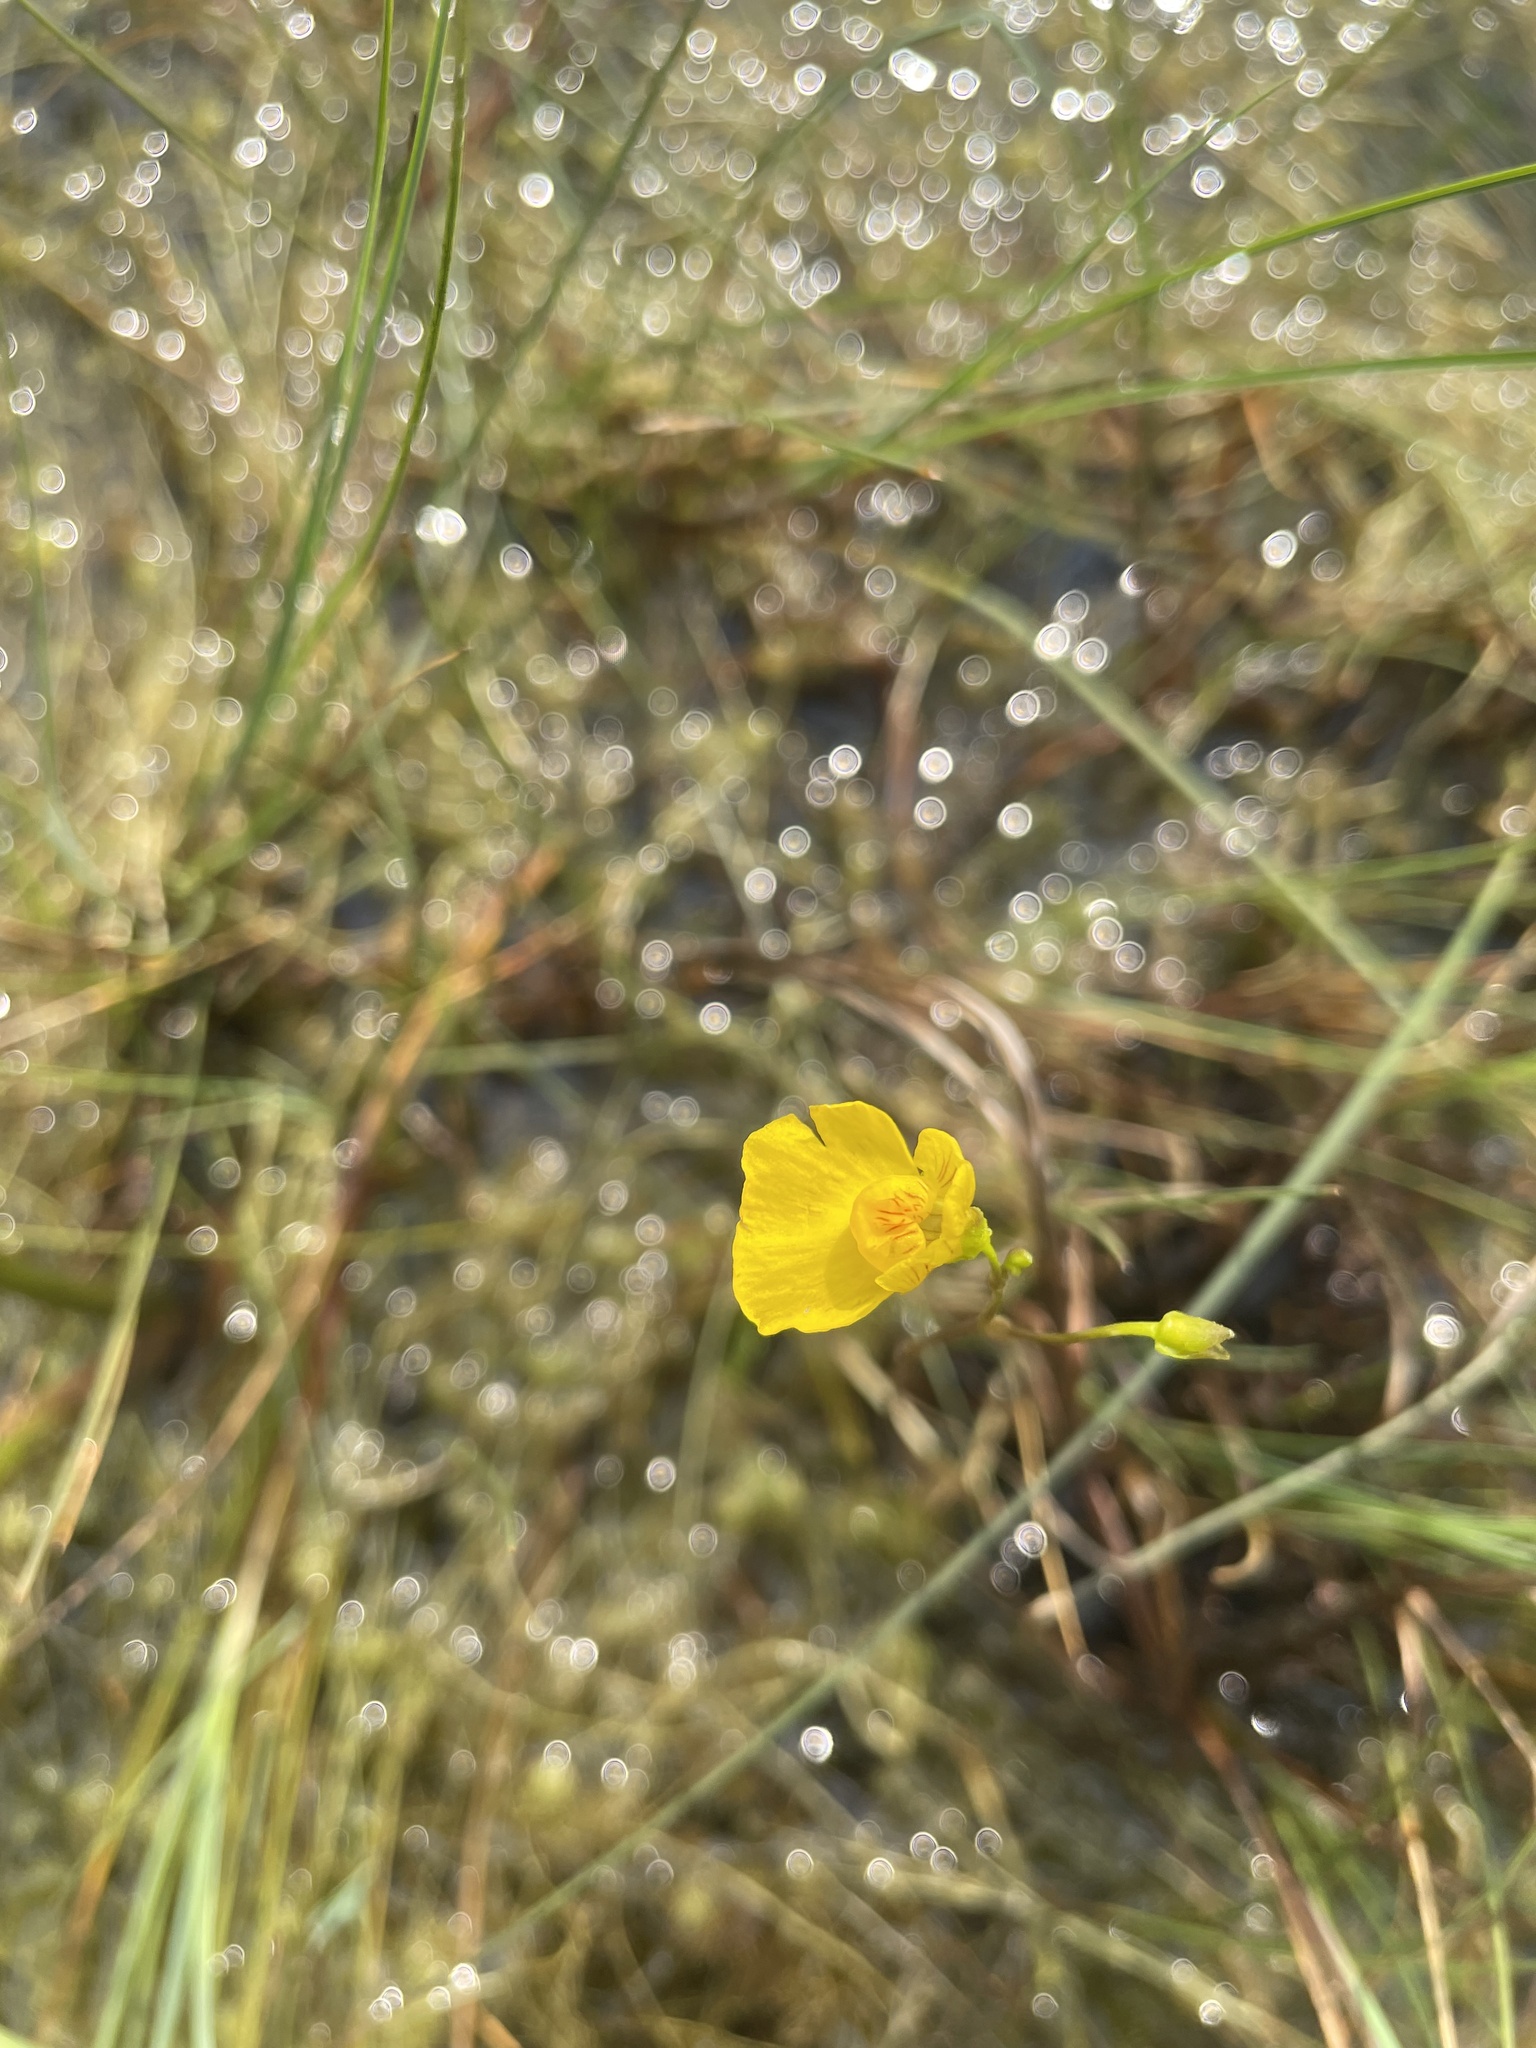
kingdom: Plantae
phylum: Tracheophyta
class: Magnoliopsida
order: Lamiales
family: Lentibulariaceae
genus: Utricularia
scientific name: Utricularia intermedia
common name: Intermediate bladderwort
